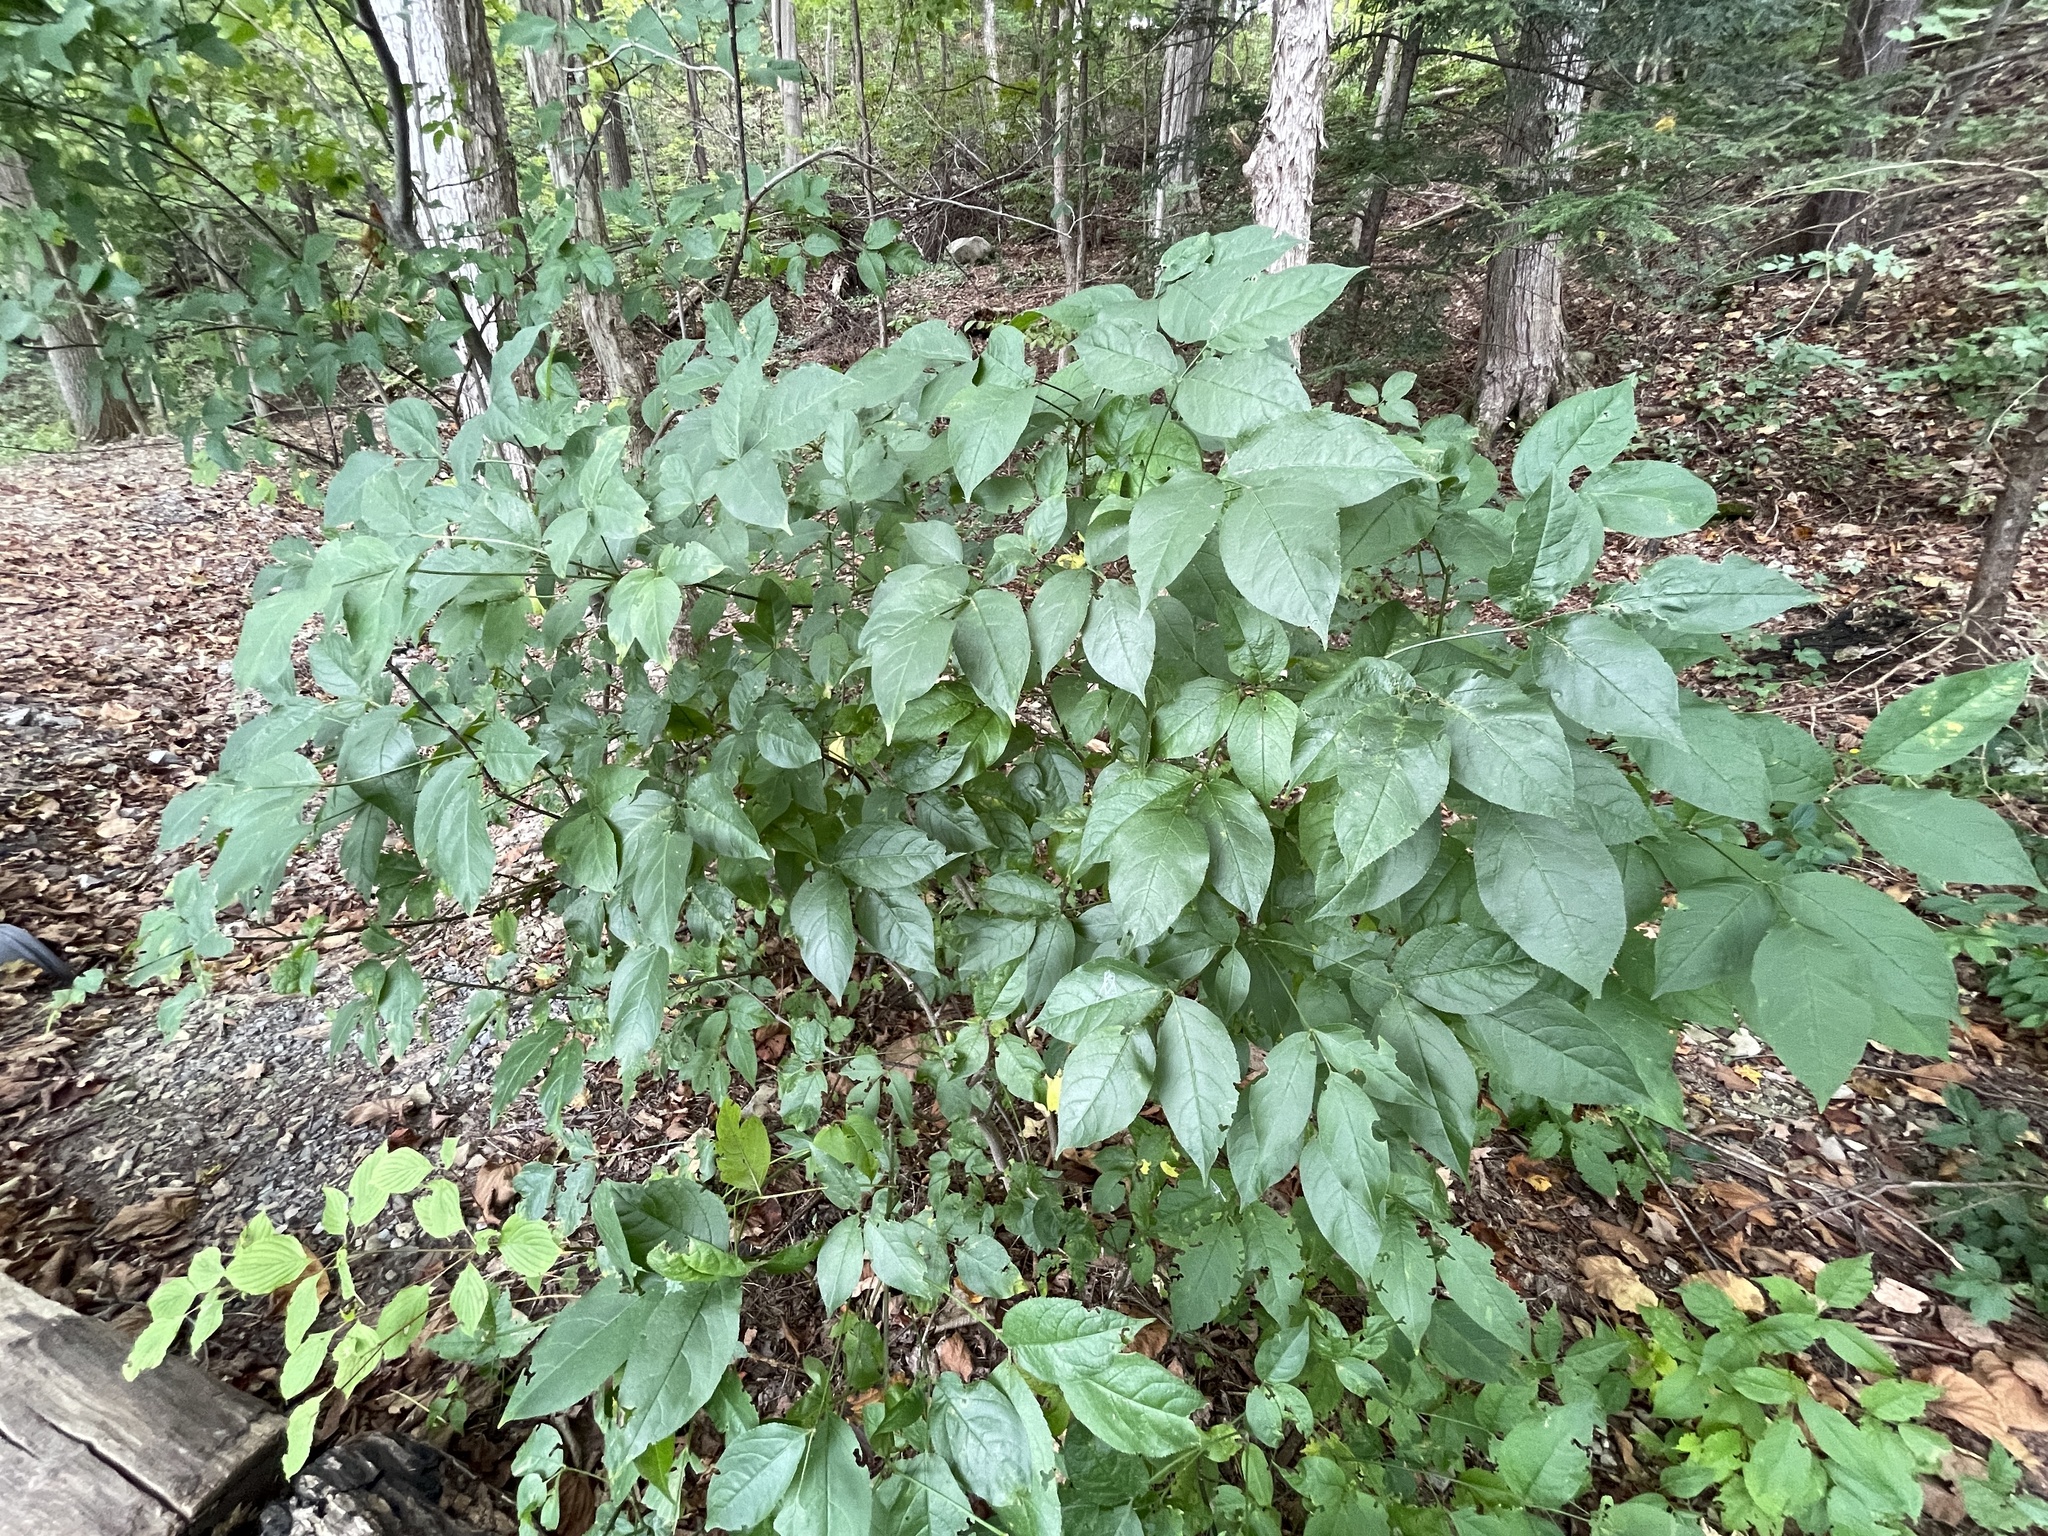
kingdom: Plantae
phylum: Tracheophyta
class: Magnoliopsida
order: Crossosomatales
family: Staphyleaceae
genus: Staphylea
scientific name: Staphylea trifolia
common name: American bladdernut
